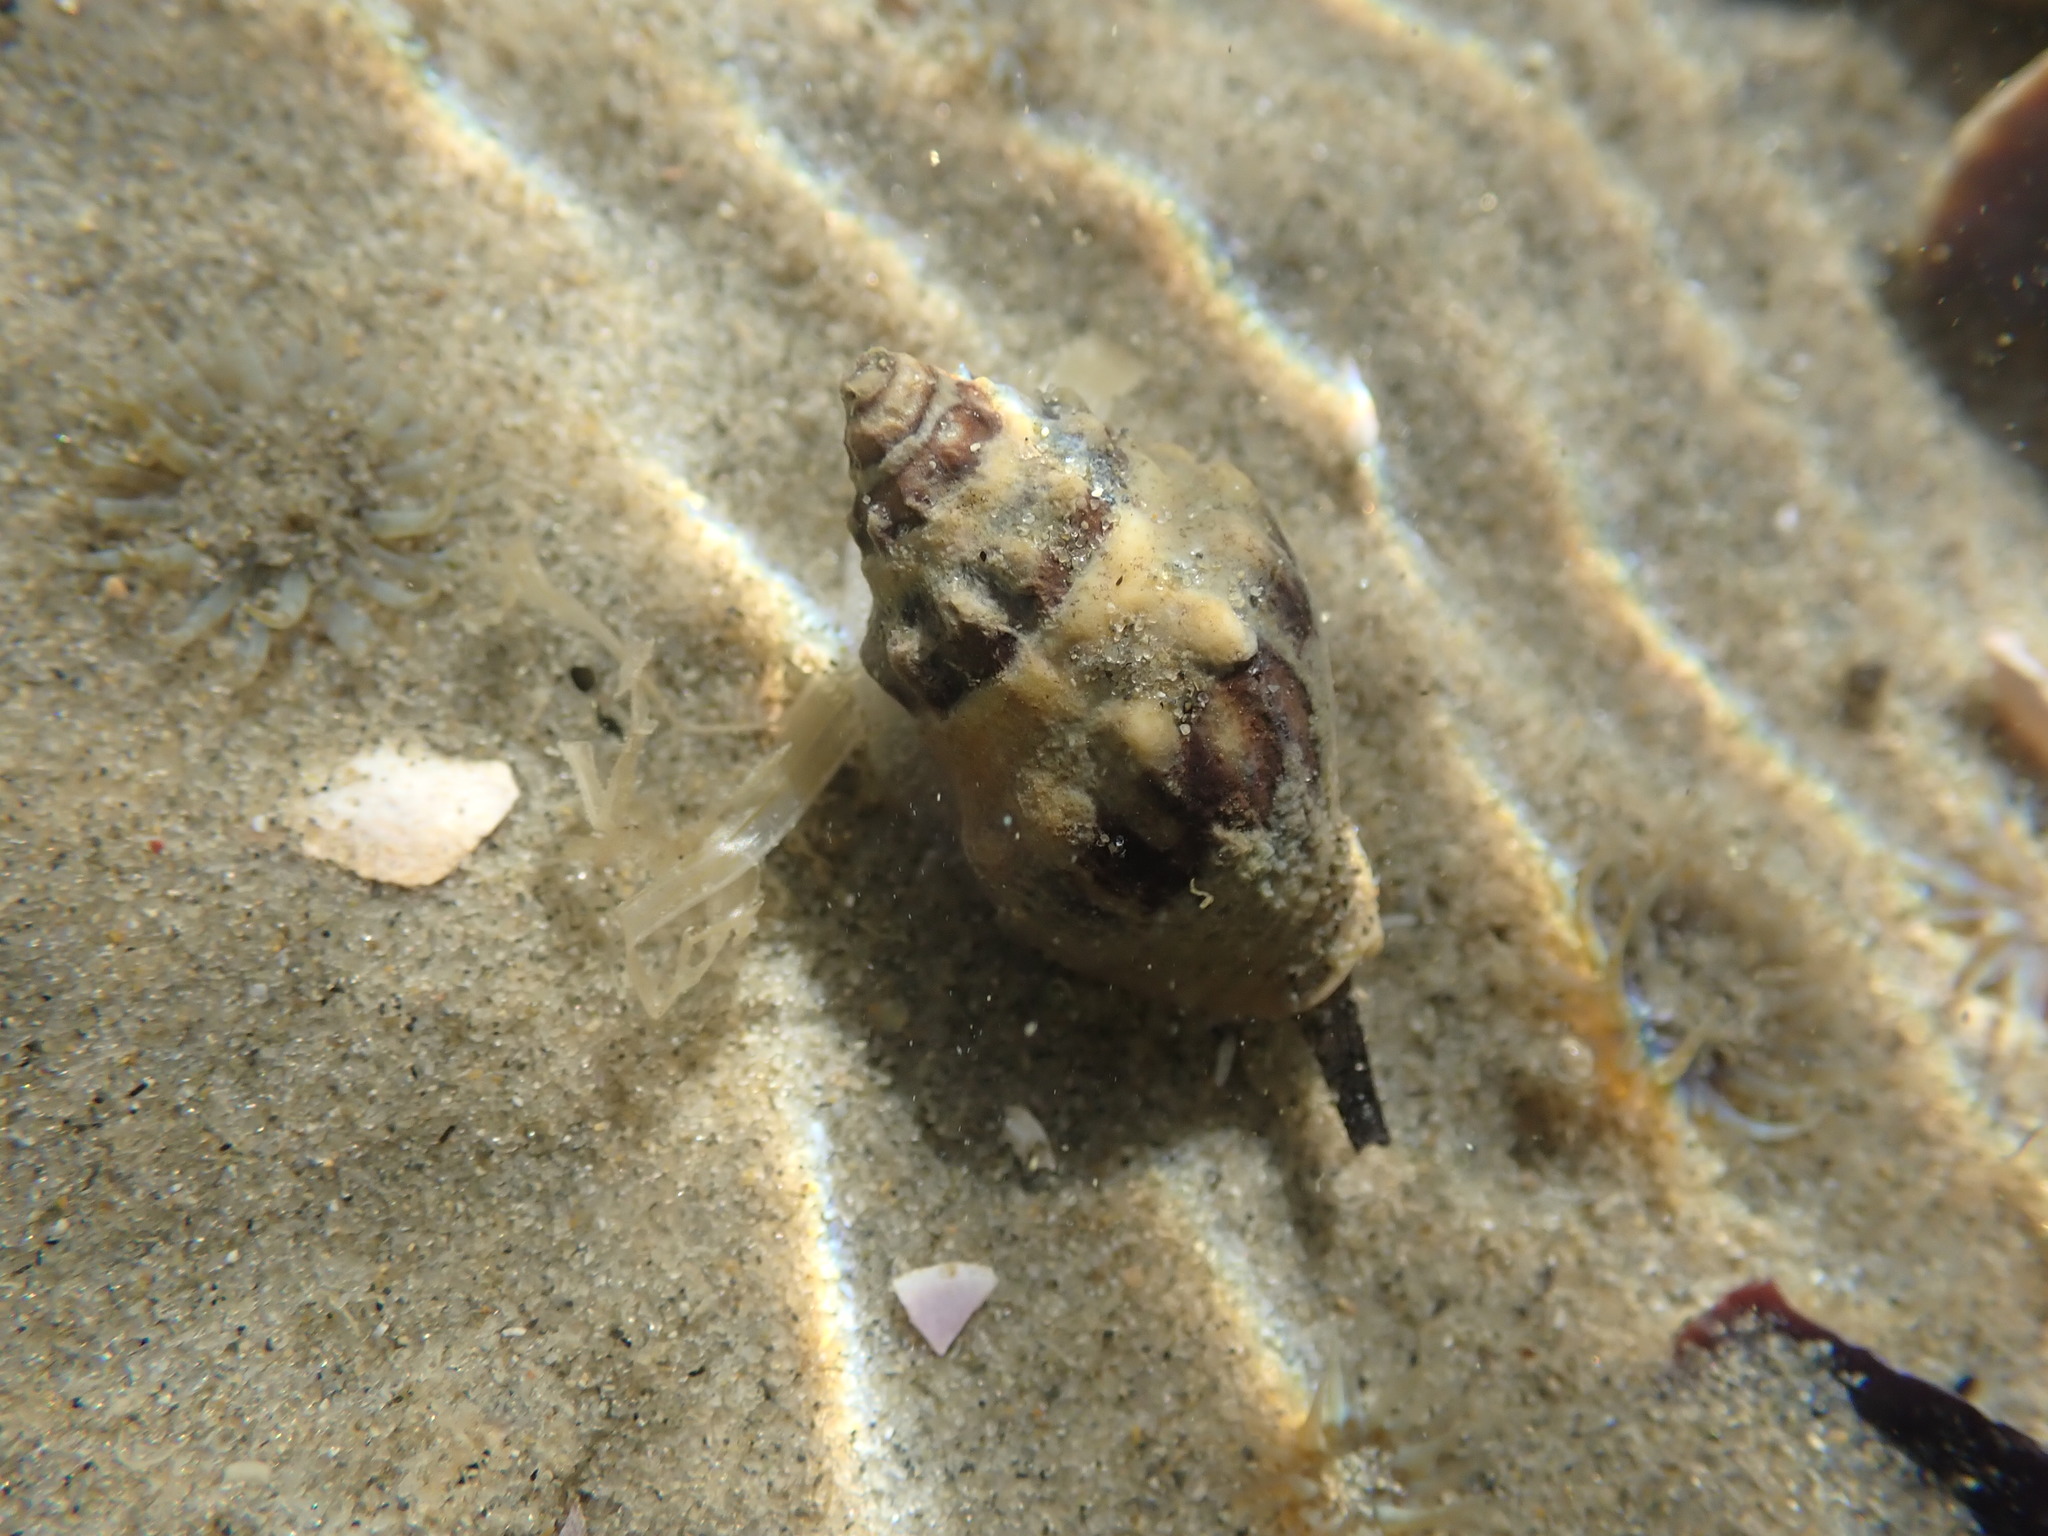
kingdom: Animalia
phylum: Mollusca
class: Gastropoda
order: Neogastropoda
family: Cominellidae
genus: Cominella
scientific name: Cominella glandiformis
